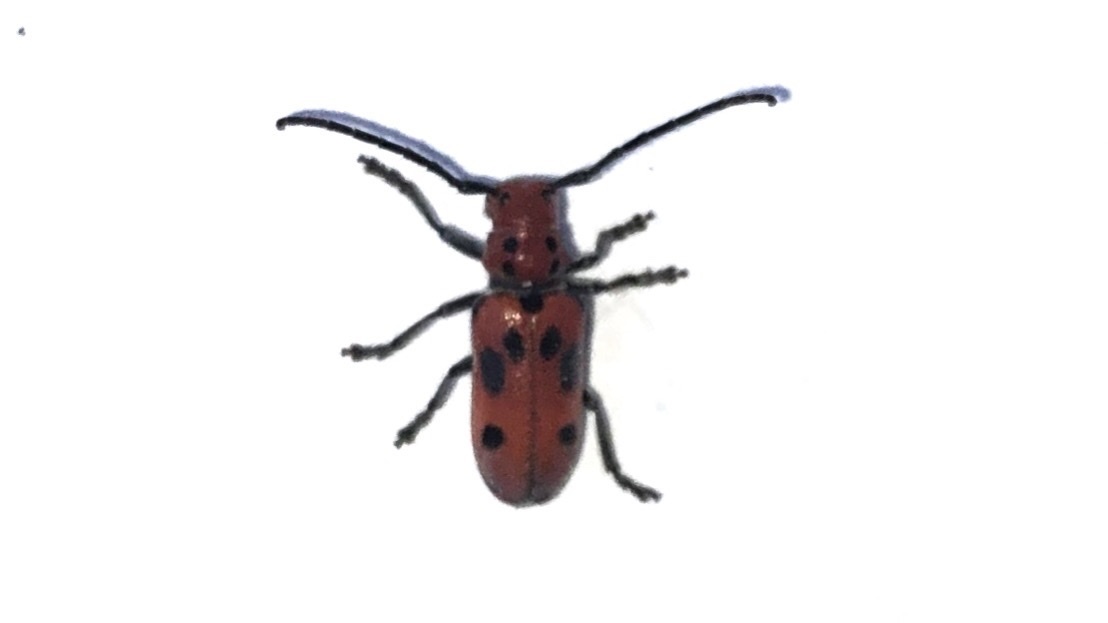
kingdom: Animalia
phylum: Arthropoda
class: Insecta
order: Coleoptera
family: Cerambycidae
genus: Tetraopes
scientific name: Tetraopes tetrophthalmus
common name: Red milkweed beetle
